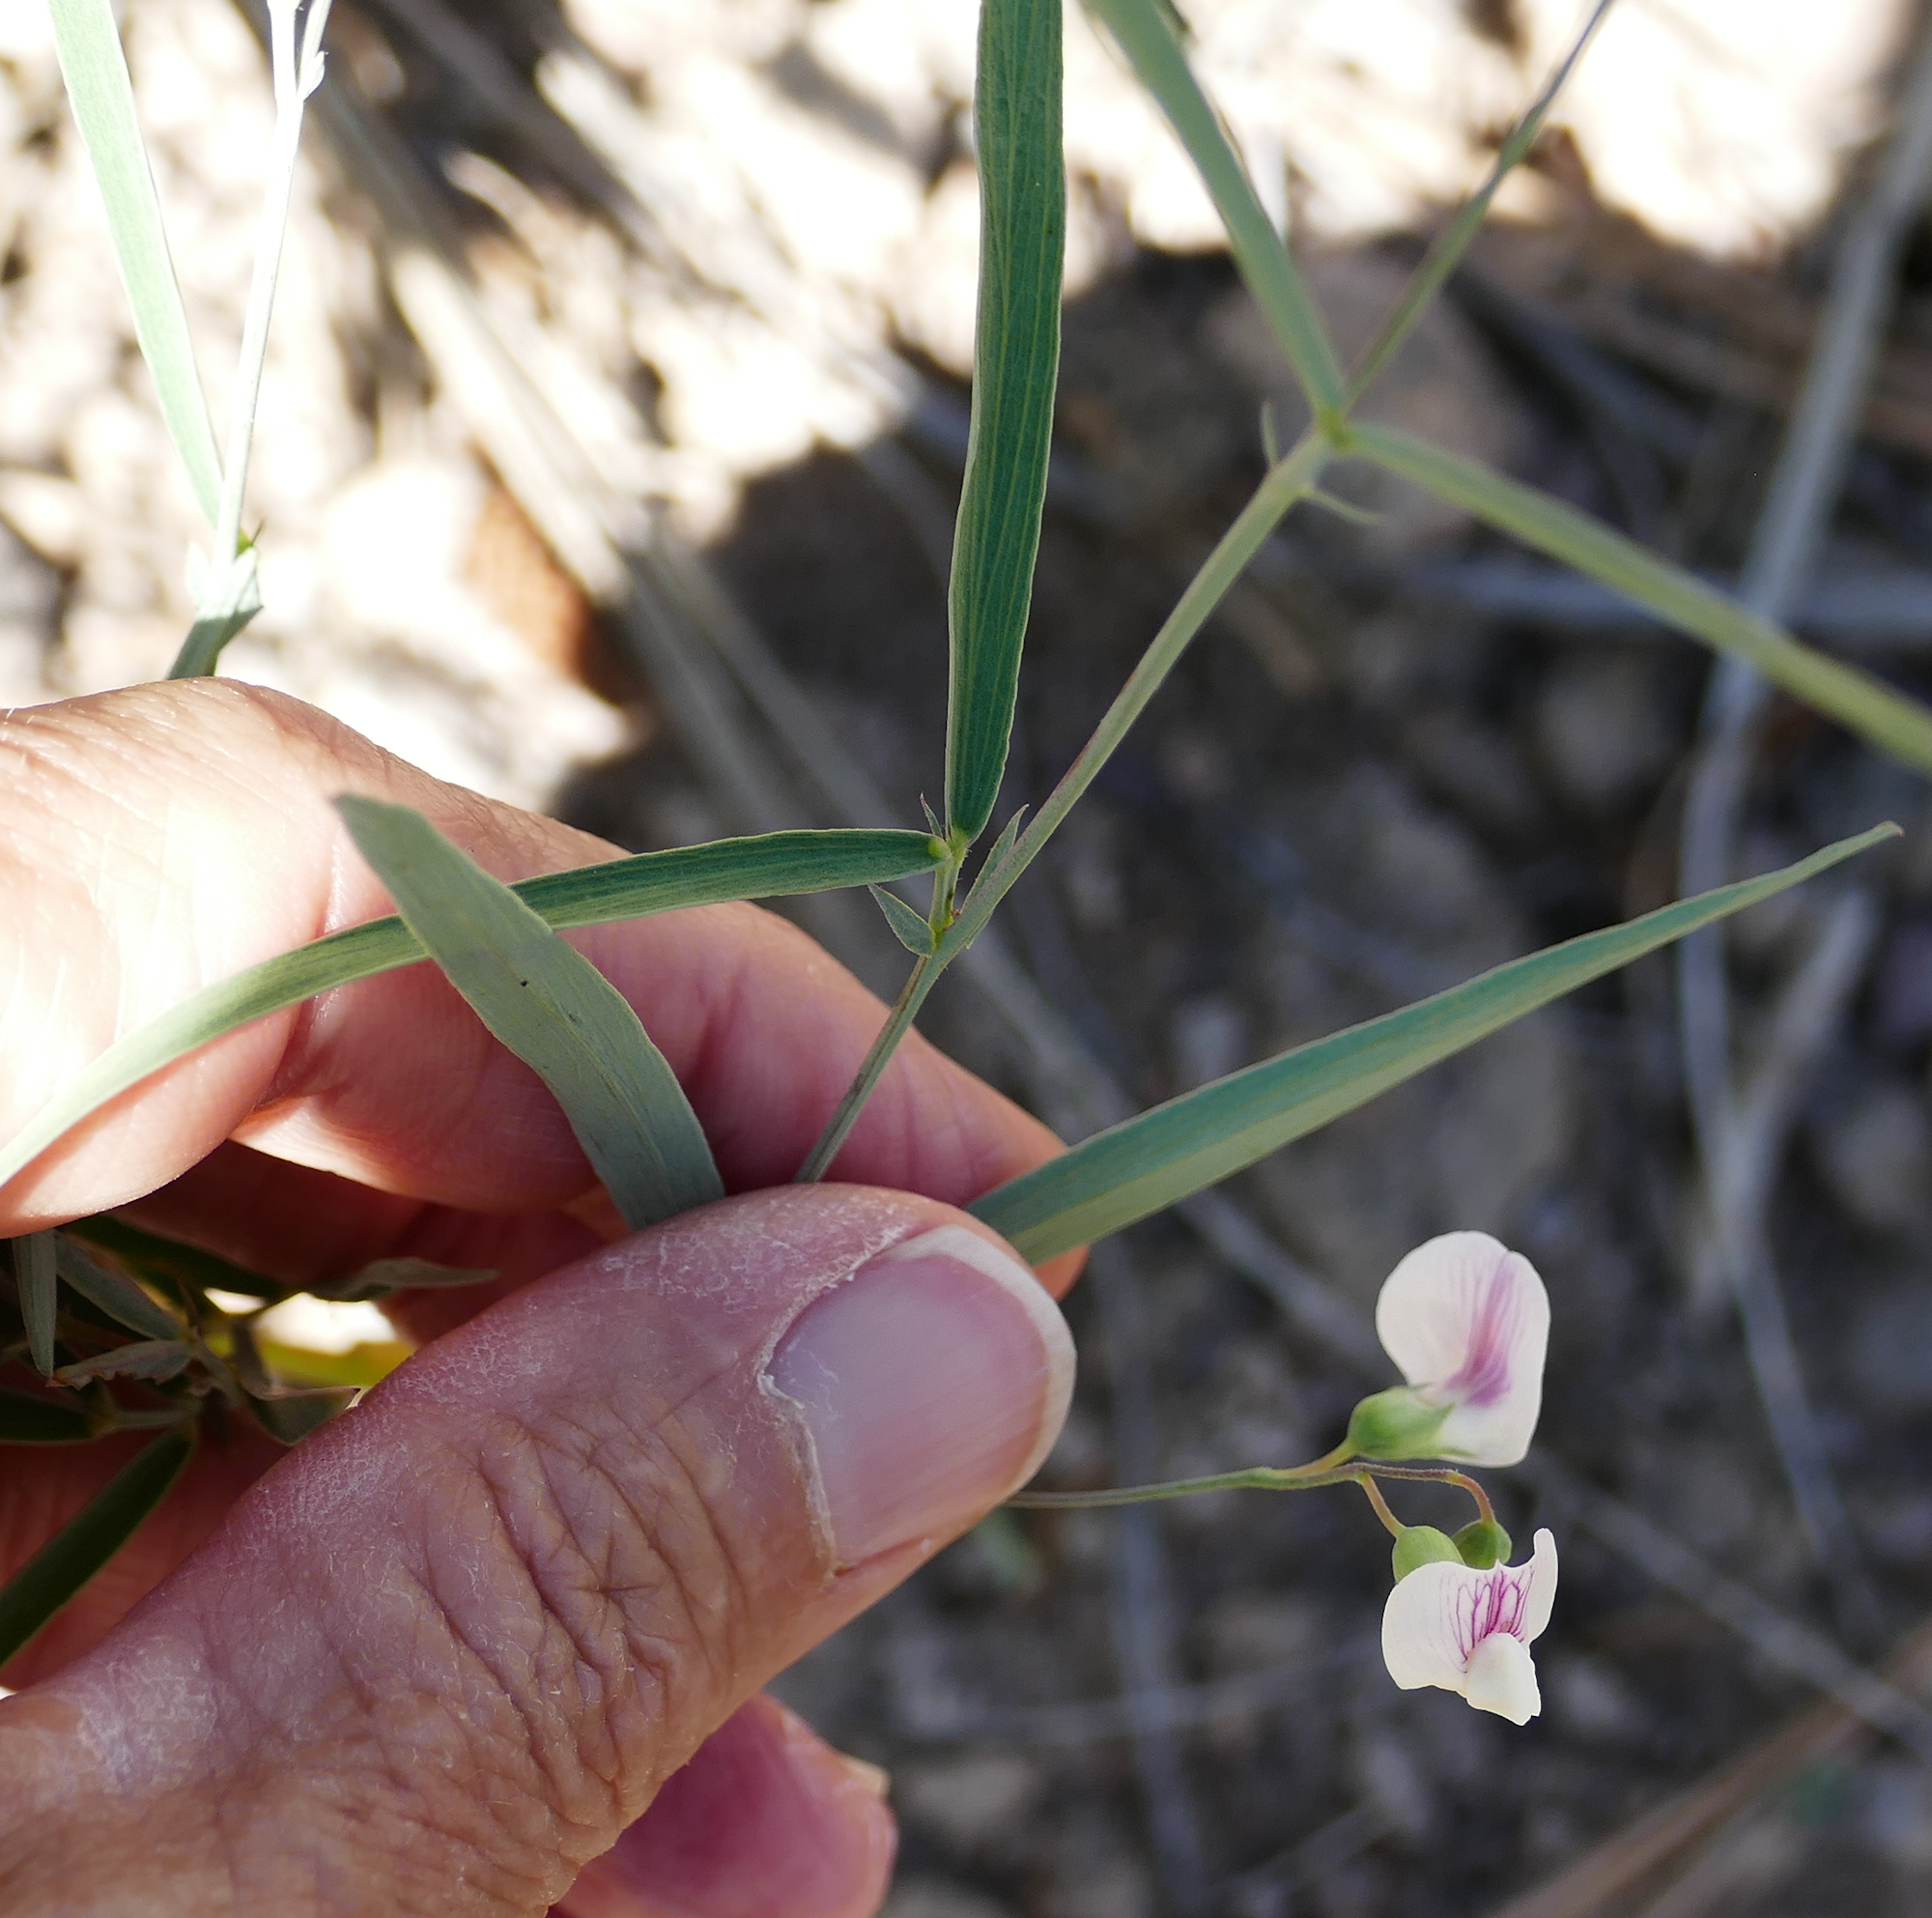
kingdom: Plantae
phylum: Tracheophyta
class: Magnoliopsida
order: Fabales
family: Fabaceae
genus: Lathyrus
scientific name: Lathyrus lanszwertii
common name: Lanszwert's vetchling
